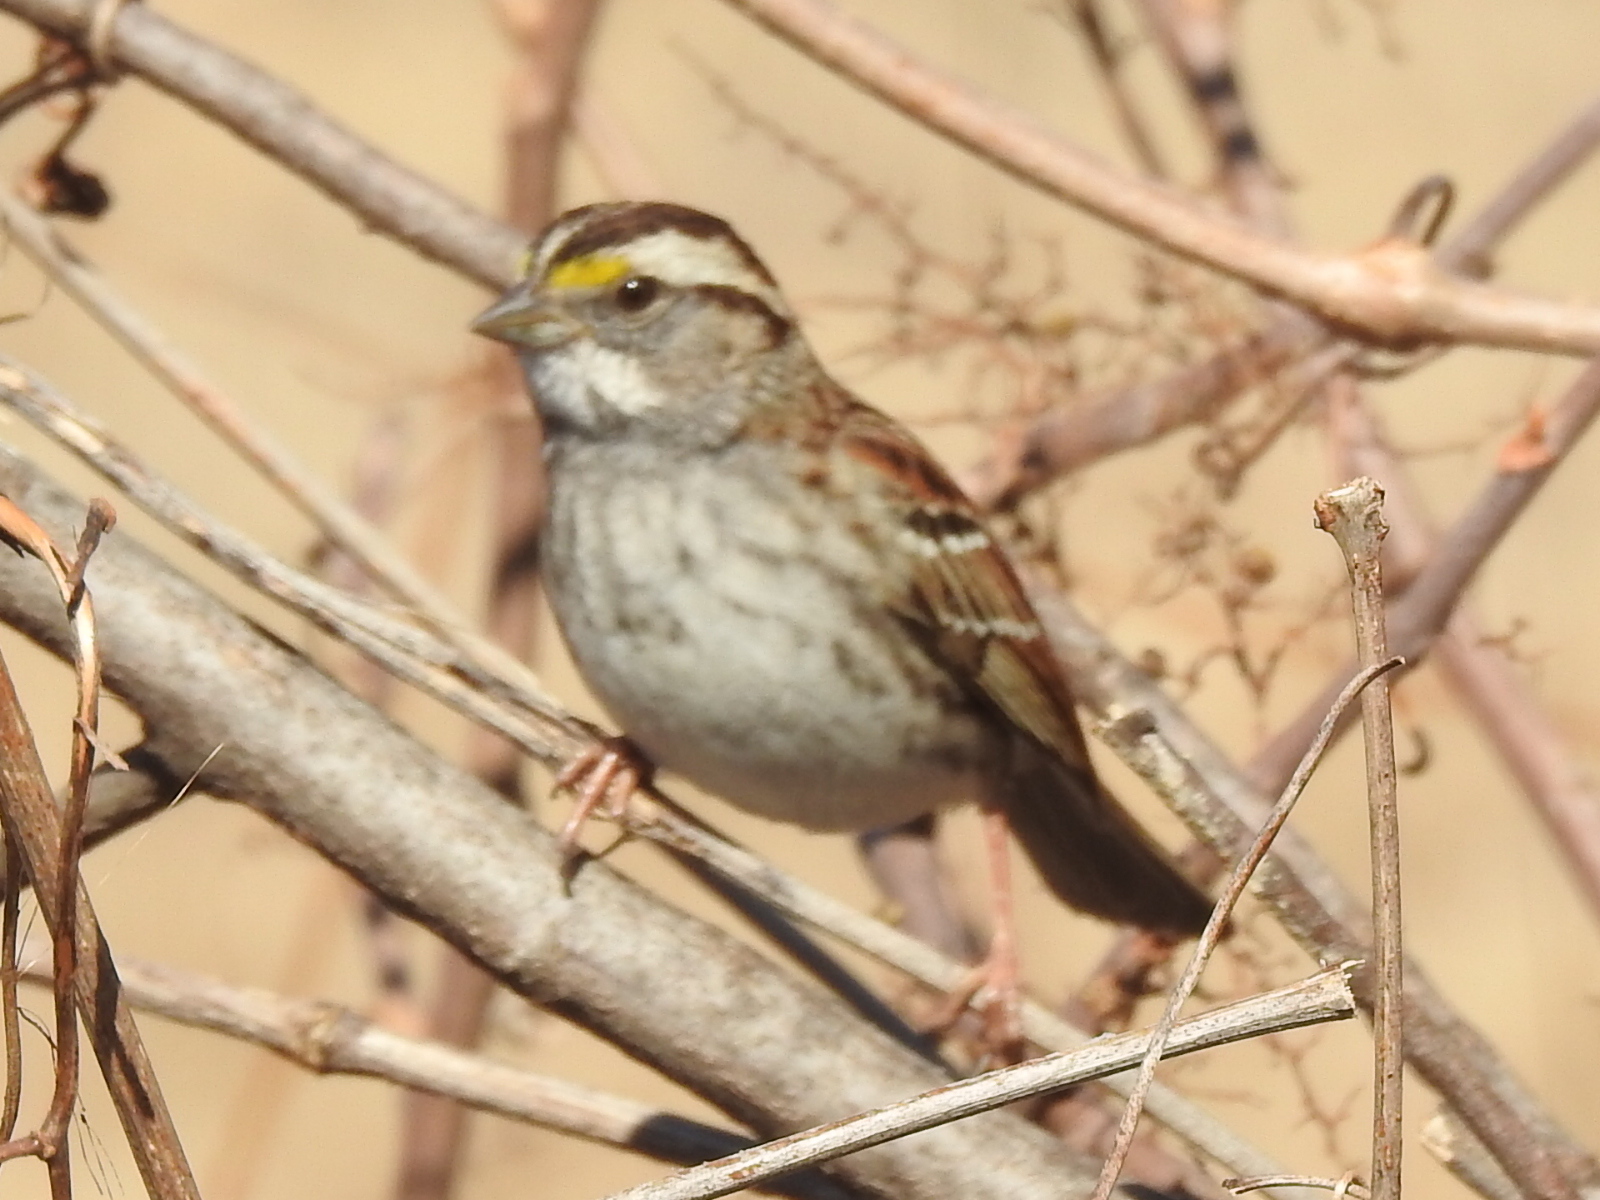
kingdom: Animalia
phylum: Chordata
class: Aves
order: Passeriformes
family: Passerellidae
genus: Zonotrichia
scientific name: Zonotrichia albicollis
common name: White-throated sparrow
